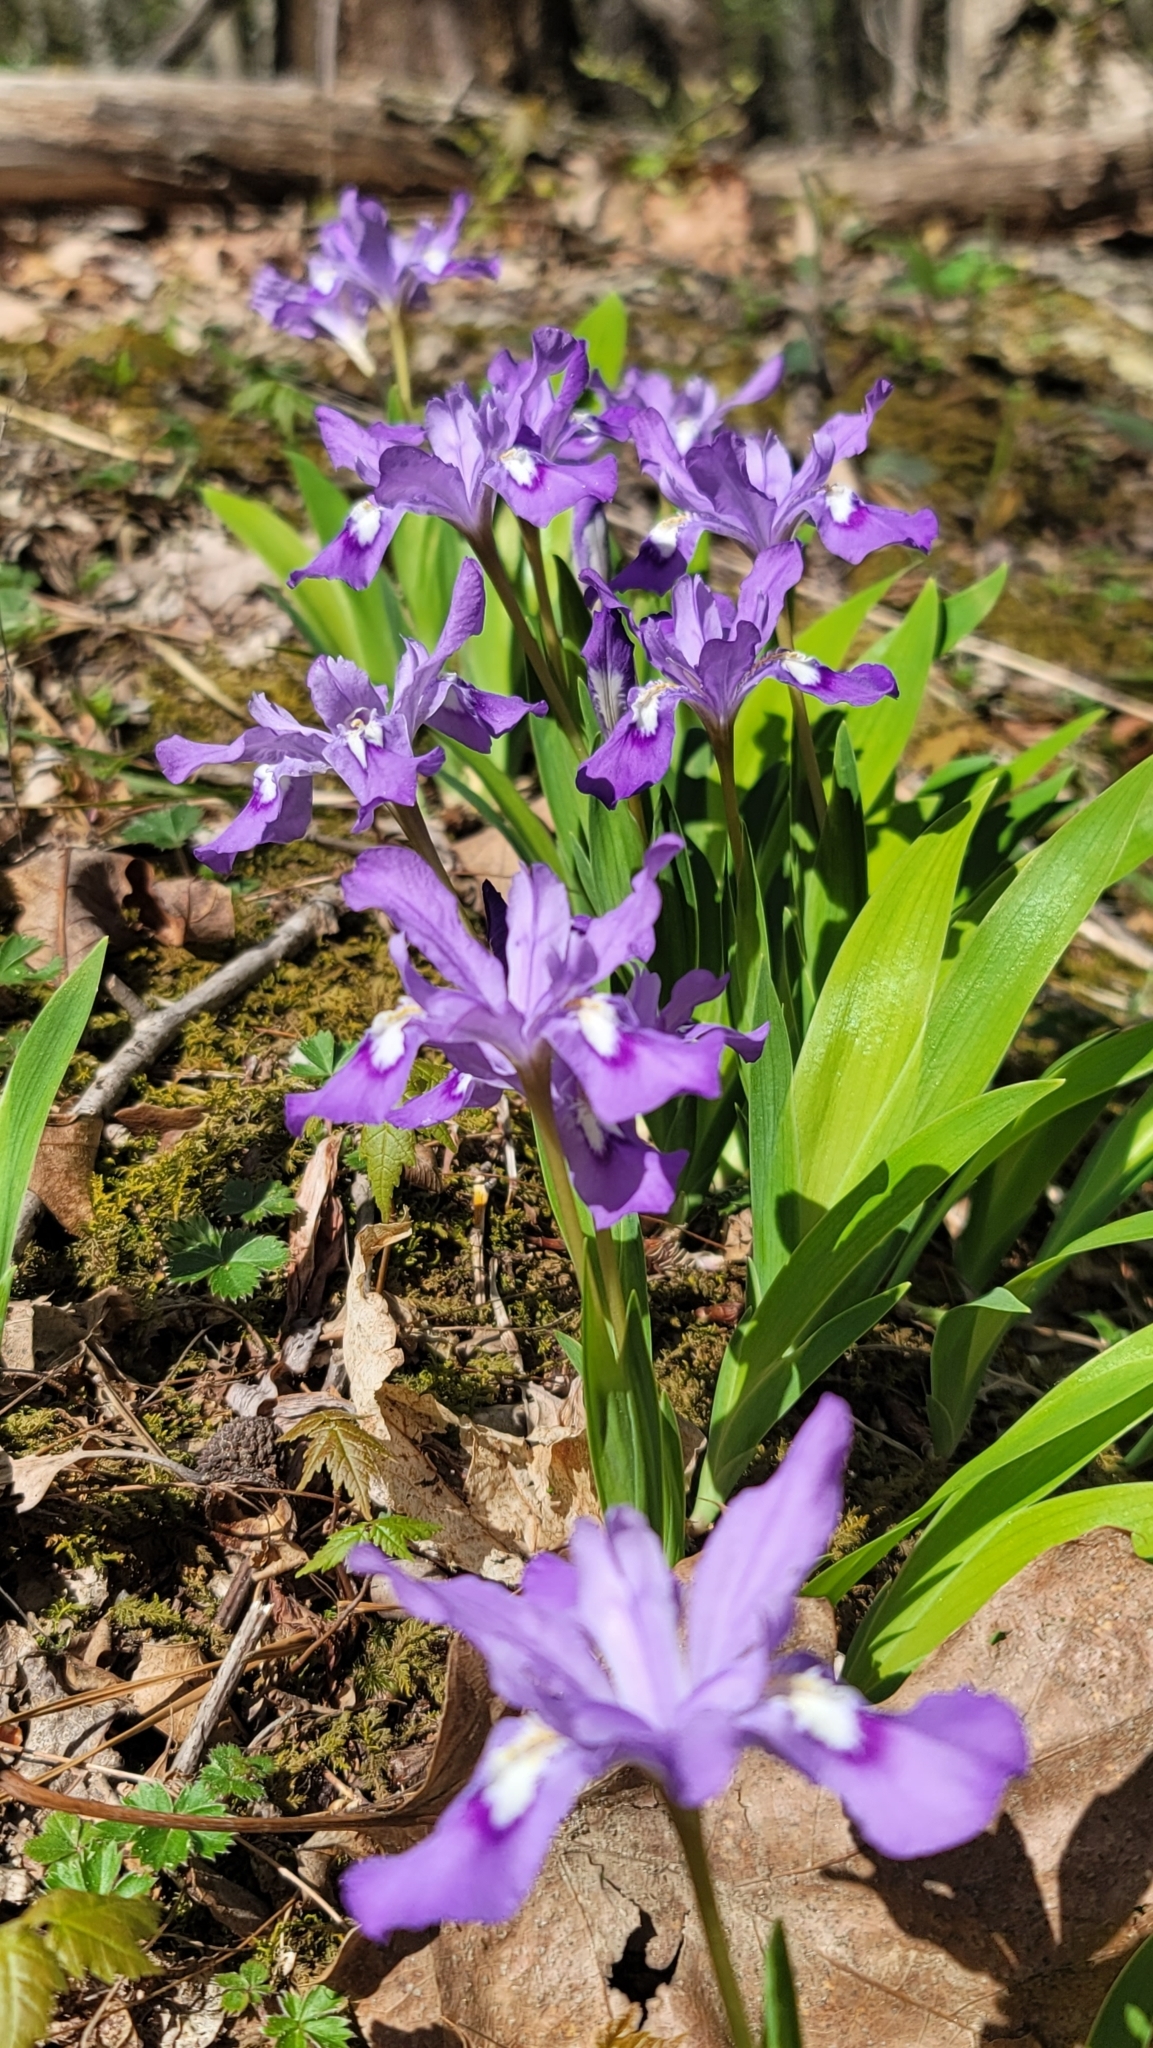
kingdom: Plantae
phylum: Tracheophyta
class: Liliopsida
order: Asparagales
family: Iridaceae
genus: Iris
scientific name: Iris cristata
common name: Crested iris
